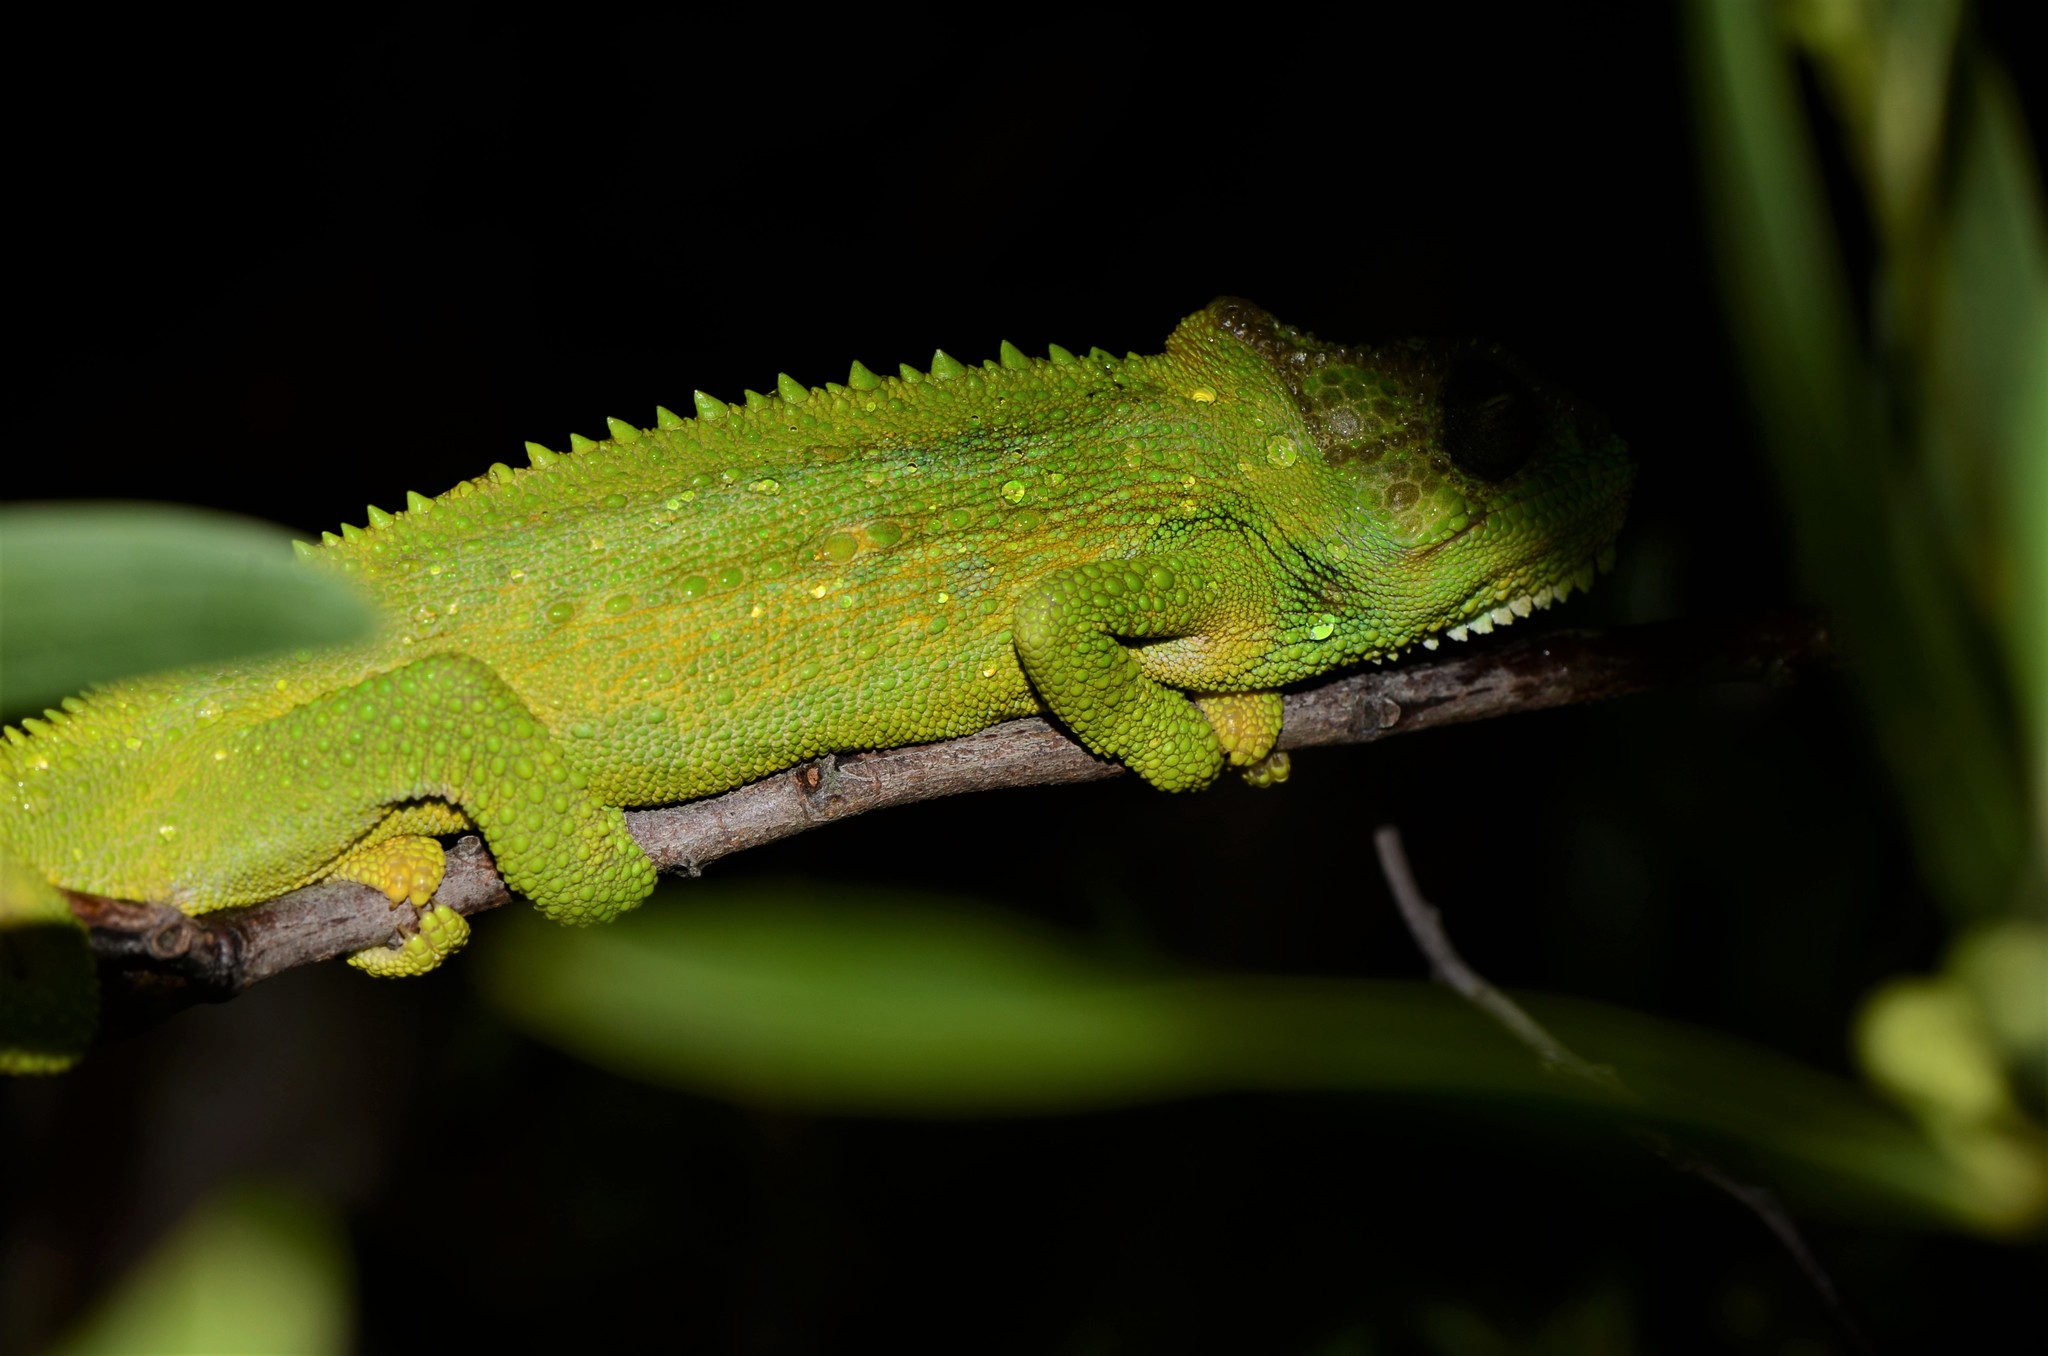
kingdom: Animalia
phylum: Chordata
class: Squamata
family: Chamaeleonidae
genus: Bradypodion
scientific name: Bradypodion pumilum
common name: Cape dwarf chameleon
